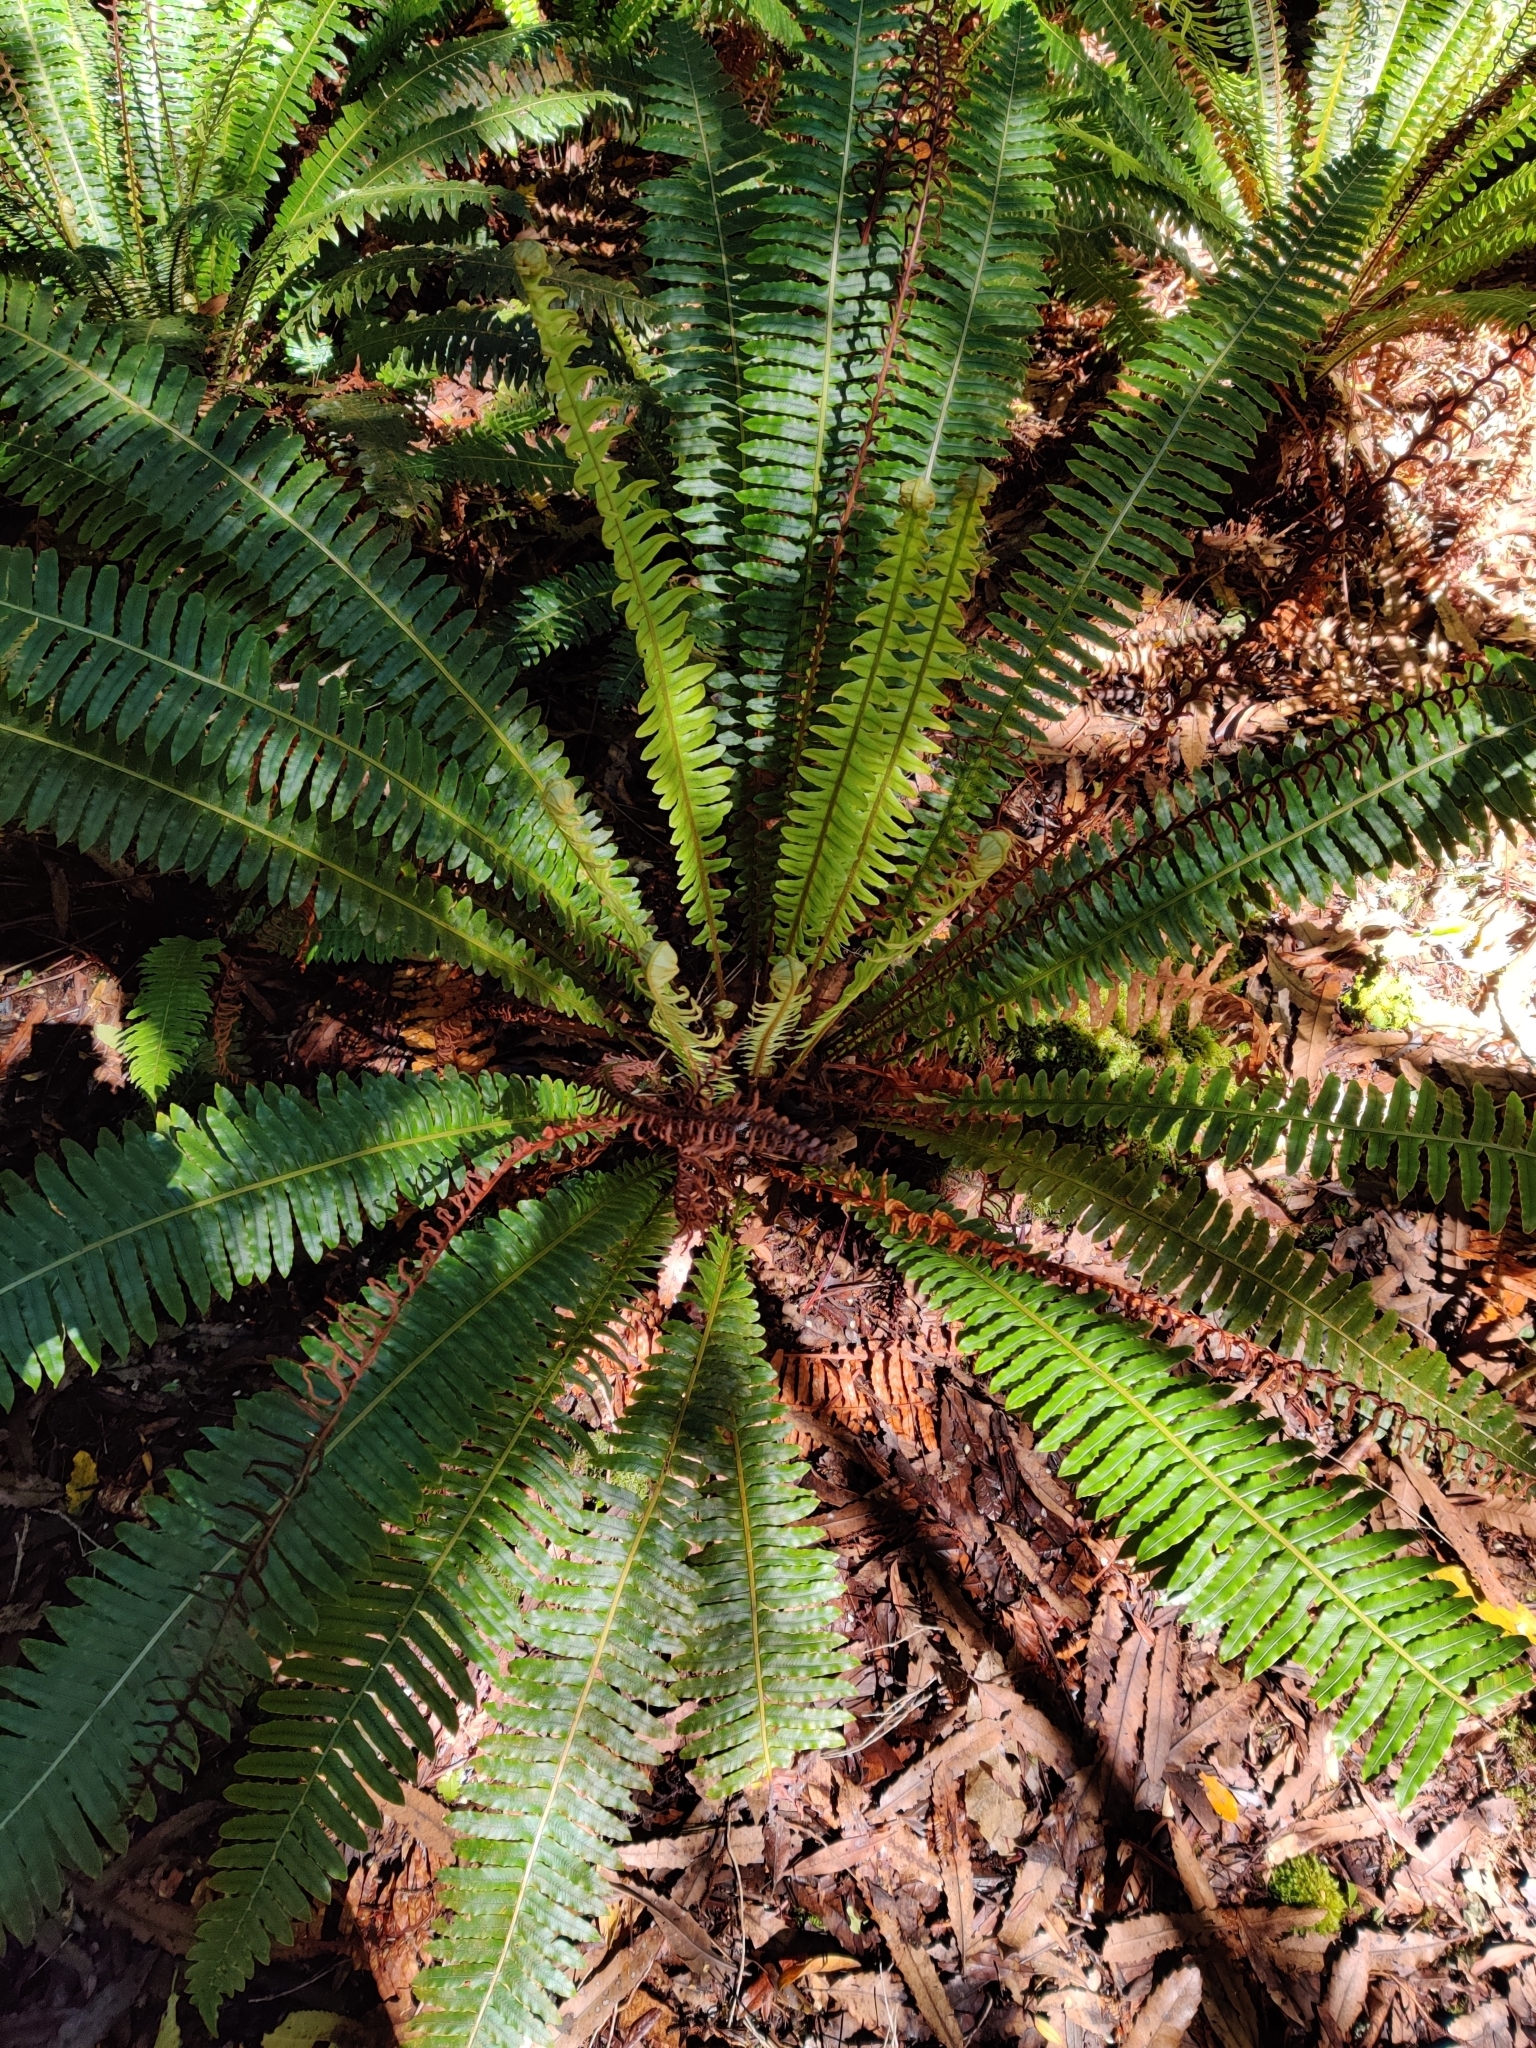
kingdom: Plantae
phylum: Tracheophyta
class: Polypodiopsida
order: Polypodiales
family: Blechnaceae
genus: Lomaria
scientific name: Lomaria discolor
